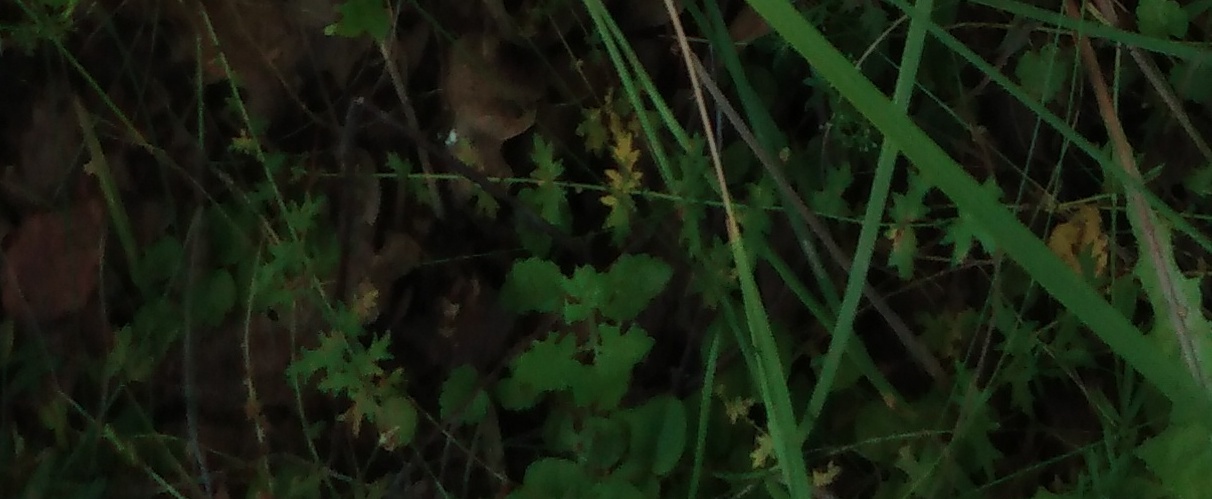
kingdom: Plantae
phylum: Tracheophyta
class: Magnoliopsida
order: Rosales
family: Rosaceae
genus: Filipendula
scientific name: Filipendula vulgaris
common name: Dropwort
